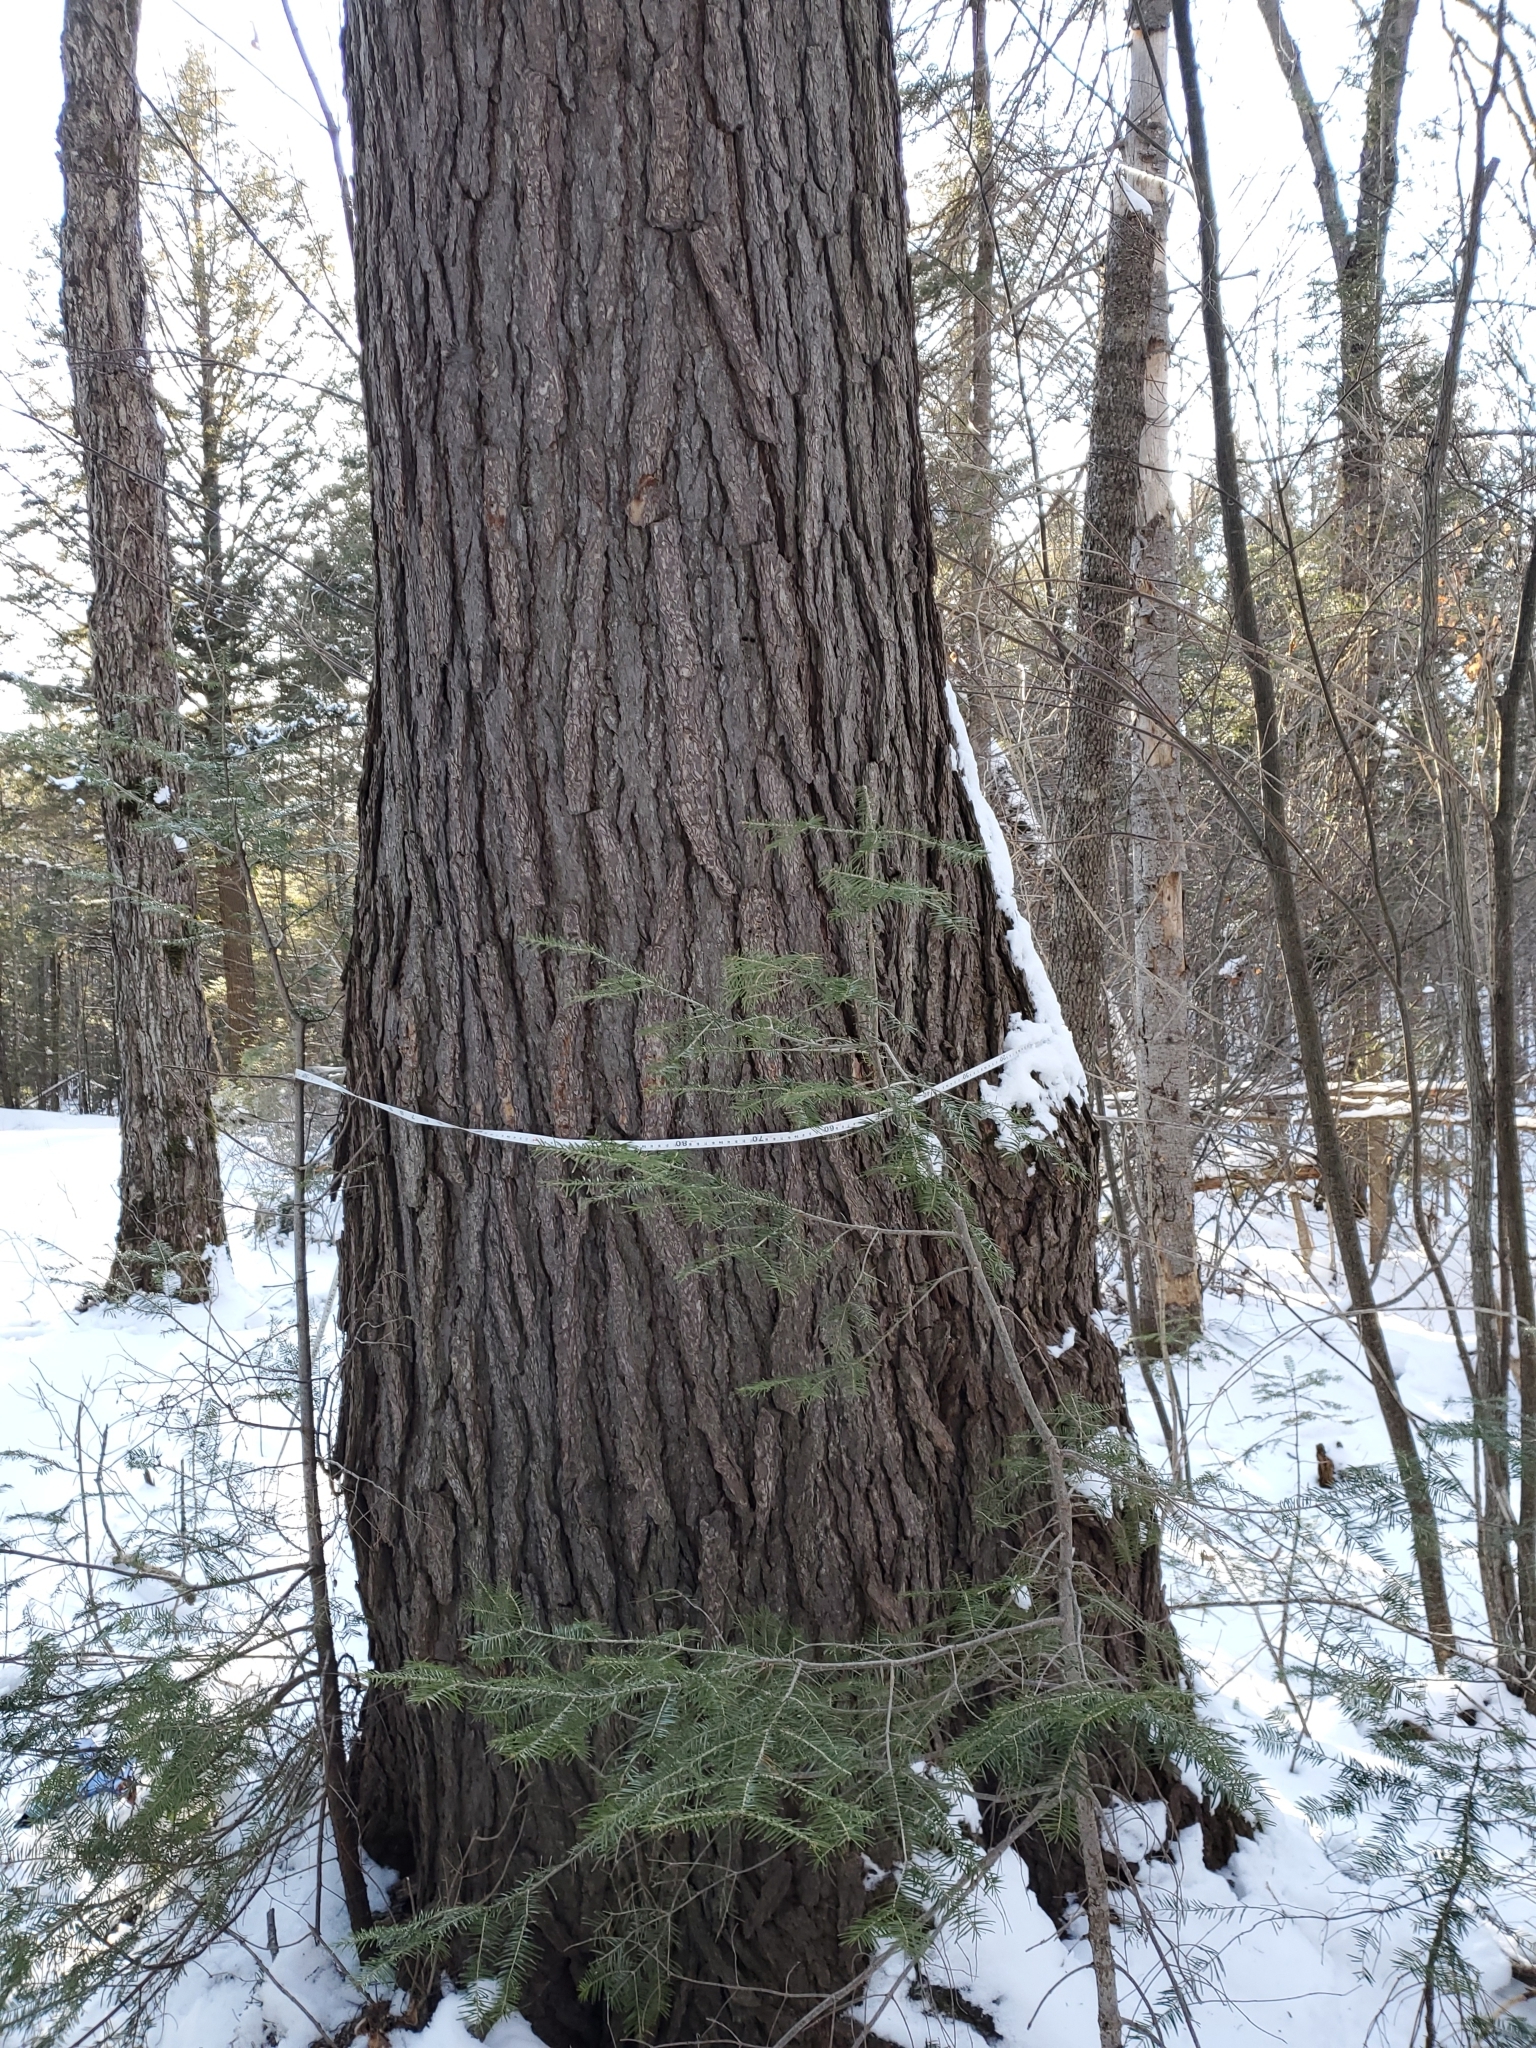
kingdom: Plantae
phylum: Tracheophyta
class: Pinopsida
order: Pinales
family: Pinaceae
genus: Tsuga
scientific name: Tsuga canadensis
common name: Eastern hemlock
